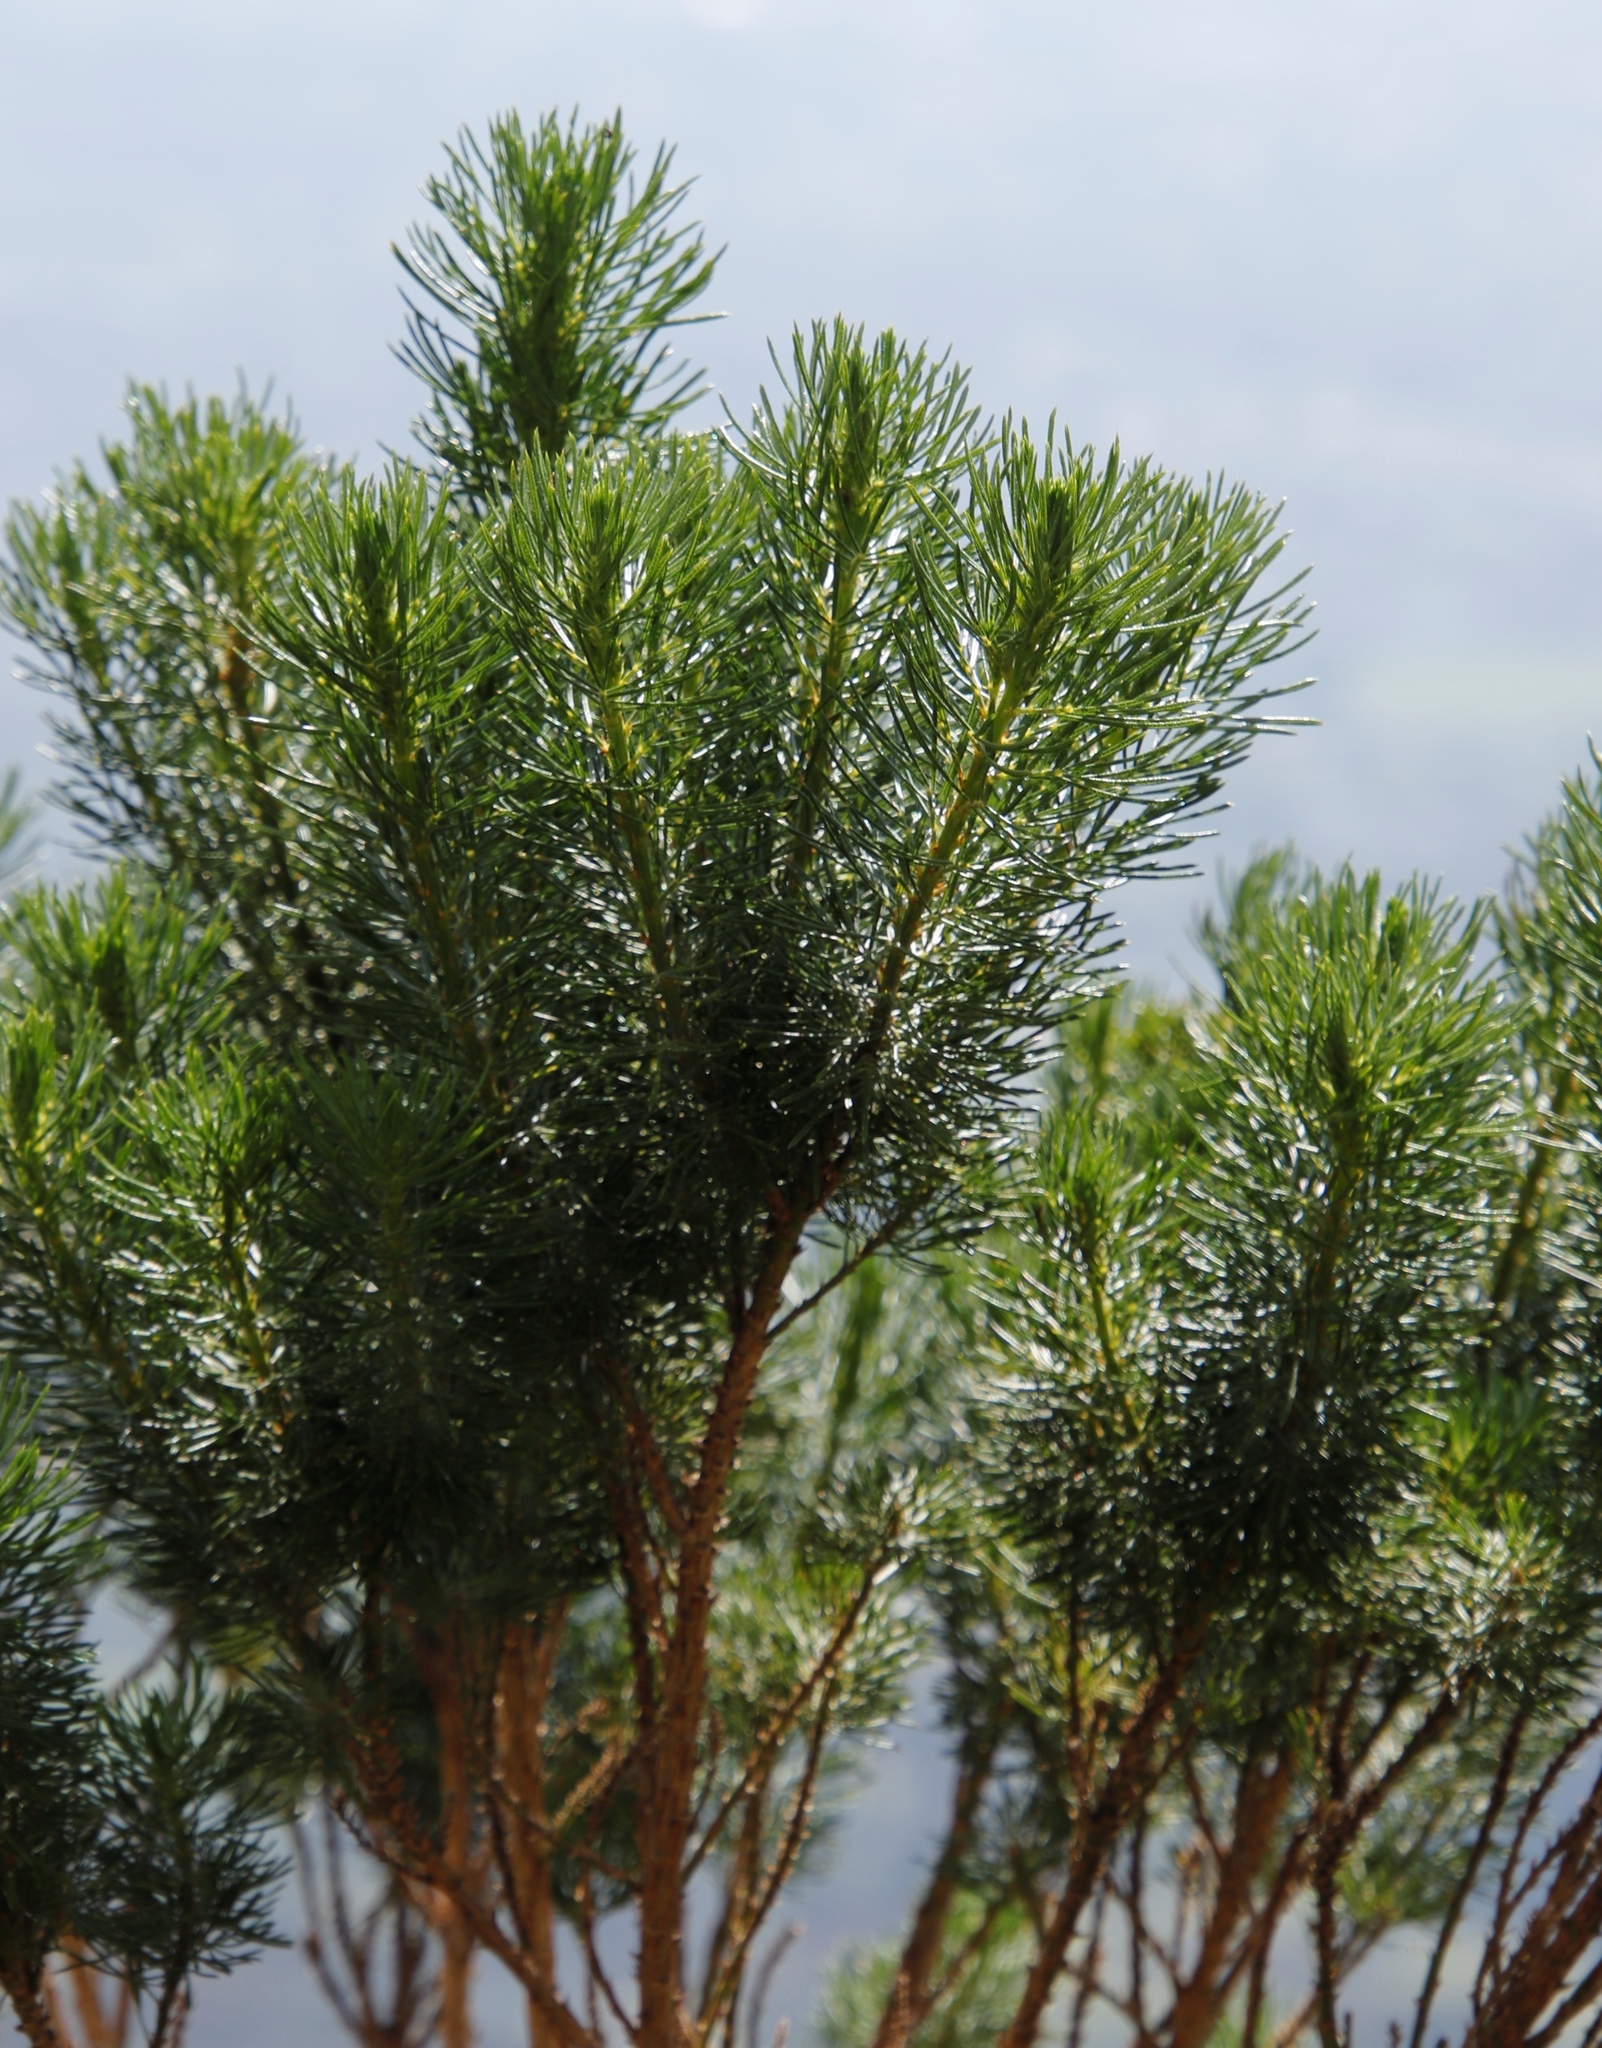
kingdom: Plantae
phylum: Tracheophyta
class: Magnoliopsida
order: Fabales
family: Fabaceae
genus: Psoralea
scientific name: Psoralea pinnata
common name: African scurfpea
